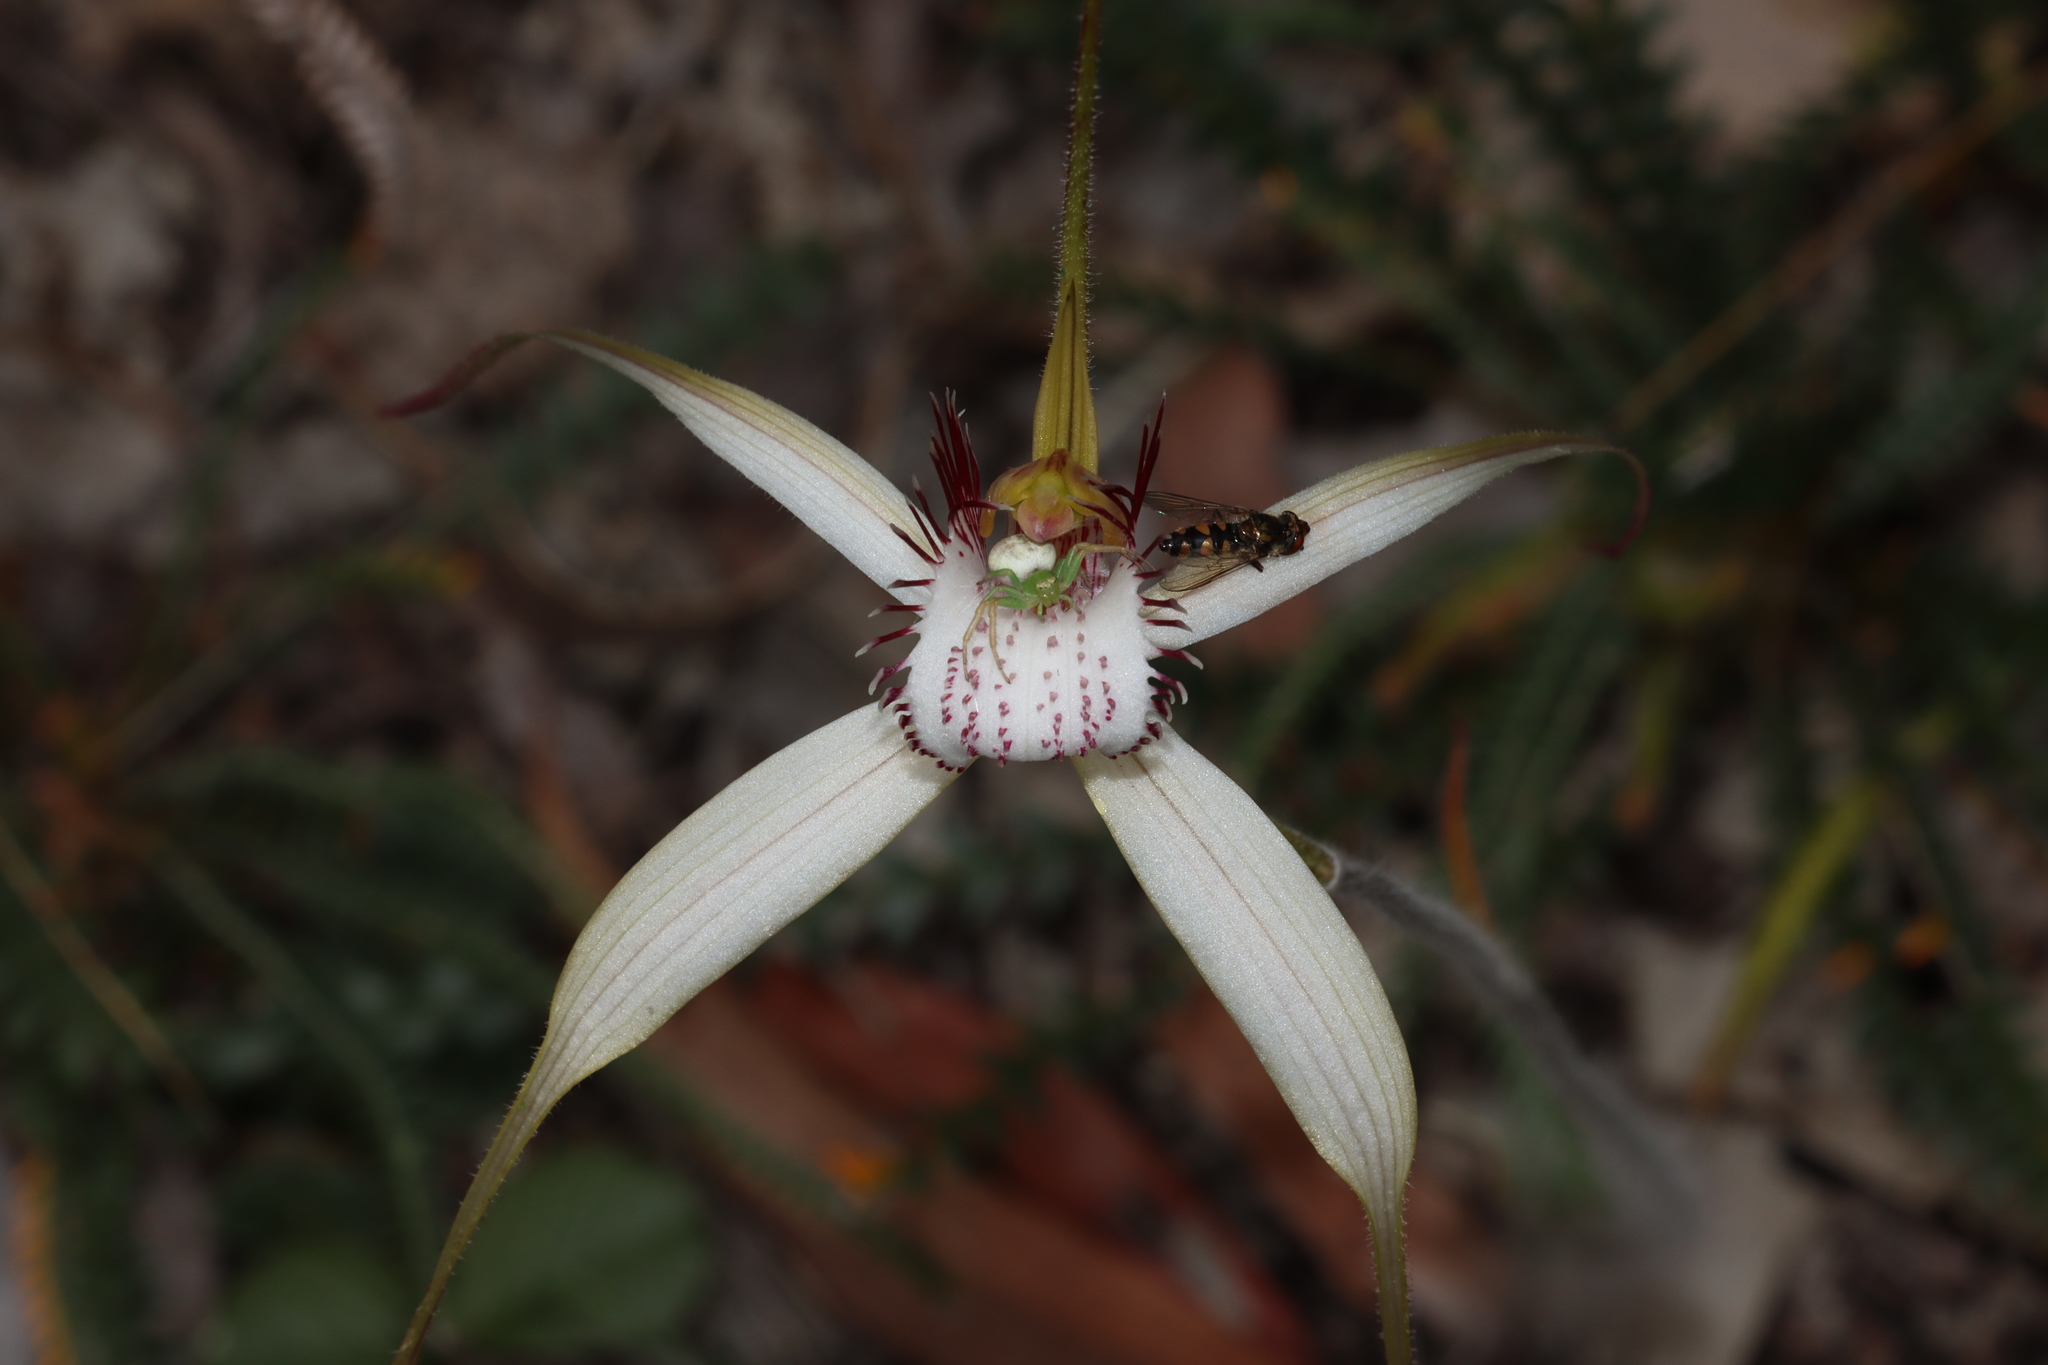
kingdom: Plantae
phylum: Tracheophyta
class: Liliopsida
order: Asparagales
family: Orchidaceae
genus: Caladenia
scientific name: Caladenia longicauda
